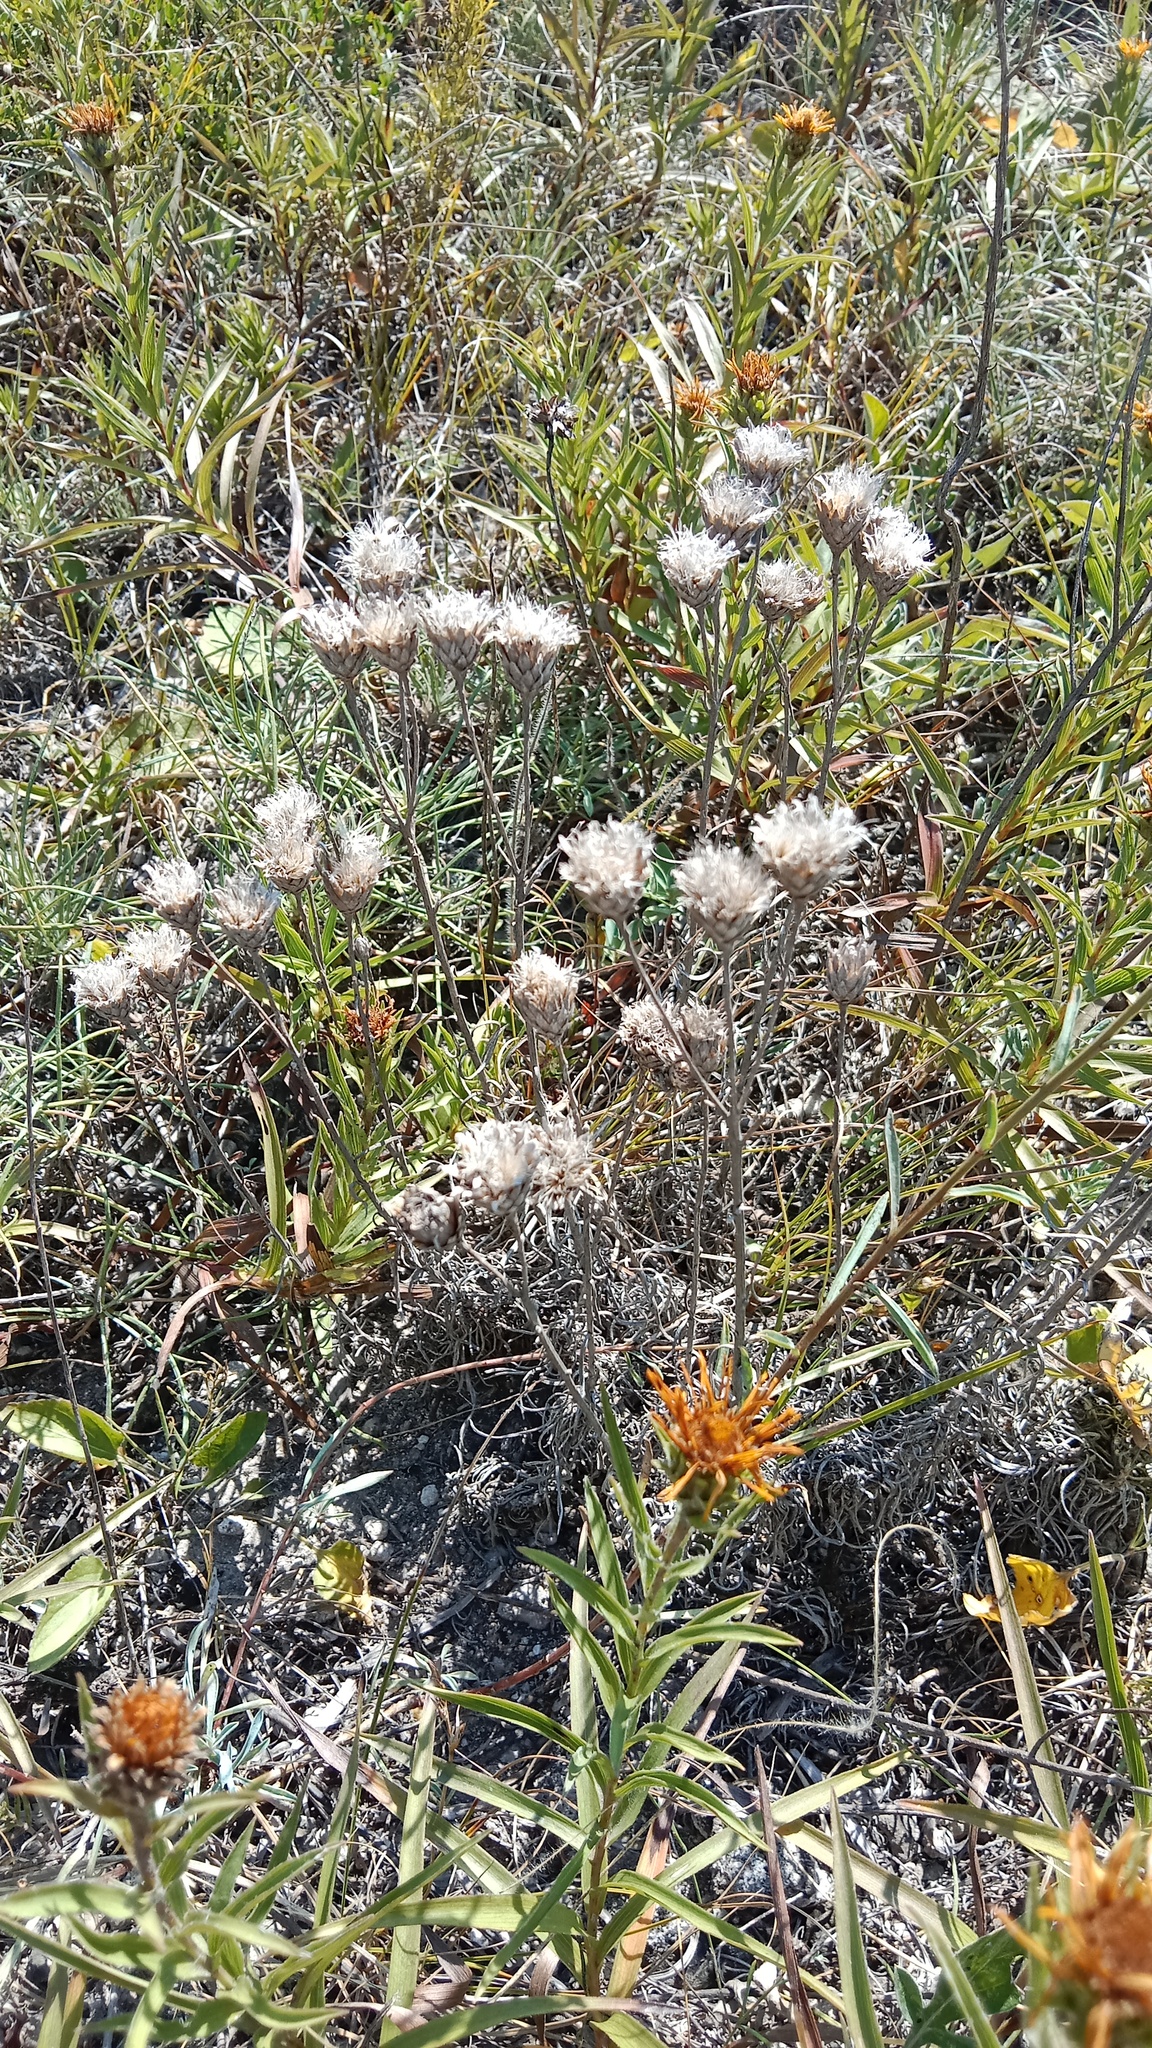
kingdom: Plantae
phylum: Tracheophyta
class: Magnoliopsida
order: Asterales
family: Asteraceae
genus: Pentanema
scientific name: Pentanema ensifolium
